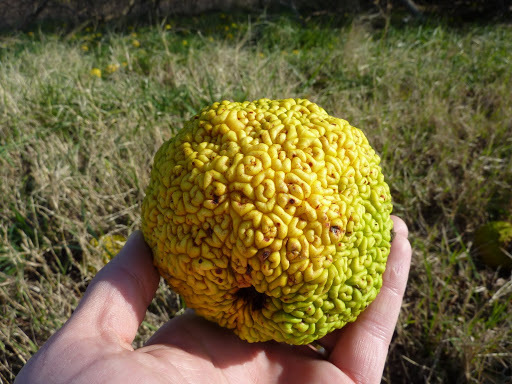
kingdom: Plantae
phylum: Tracheophyta
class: Magnoliopsida
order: Rosales
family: Moraceae
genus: Maclura
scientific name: Maclura pomifera
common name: Osage-orange
